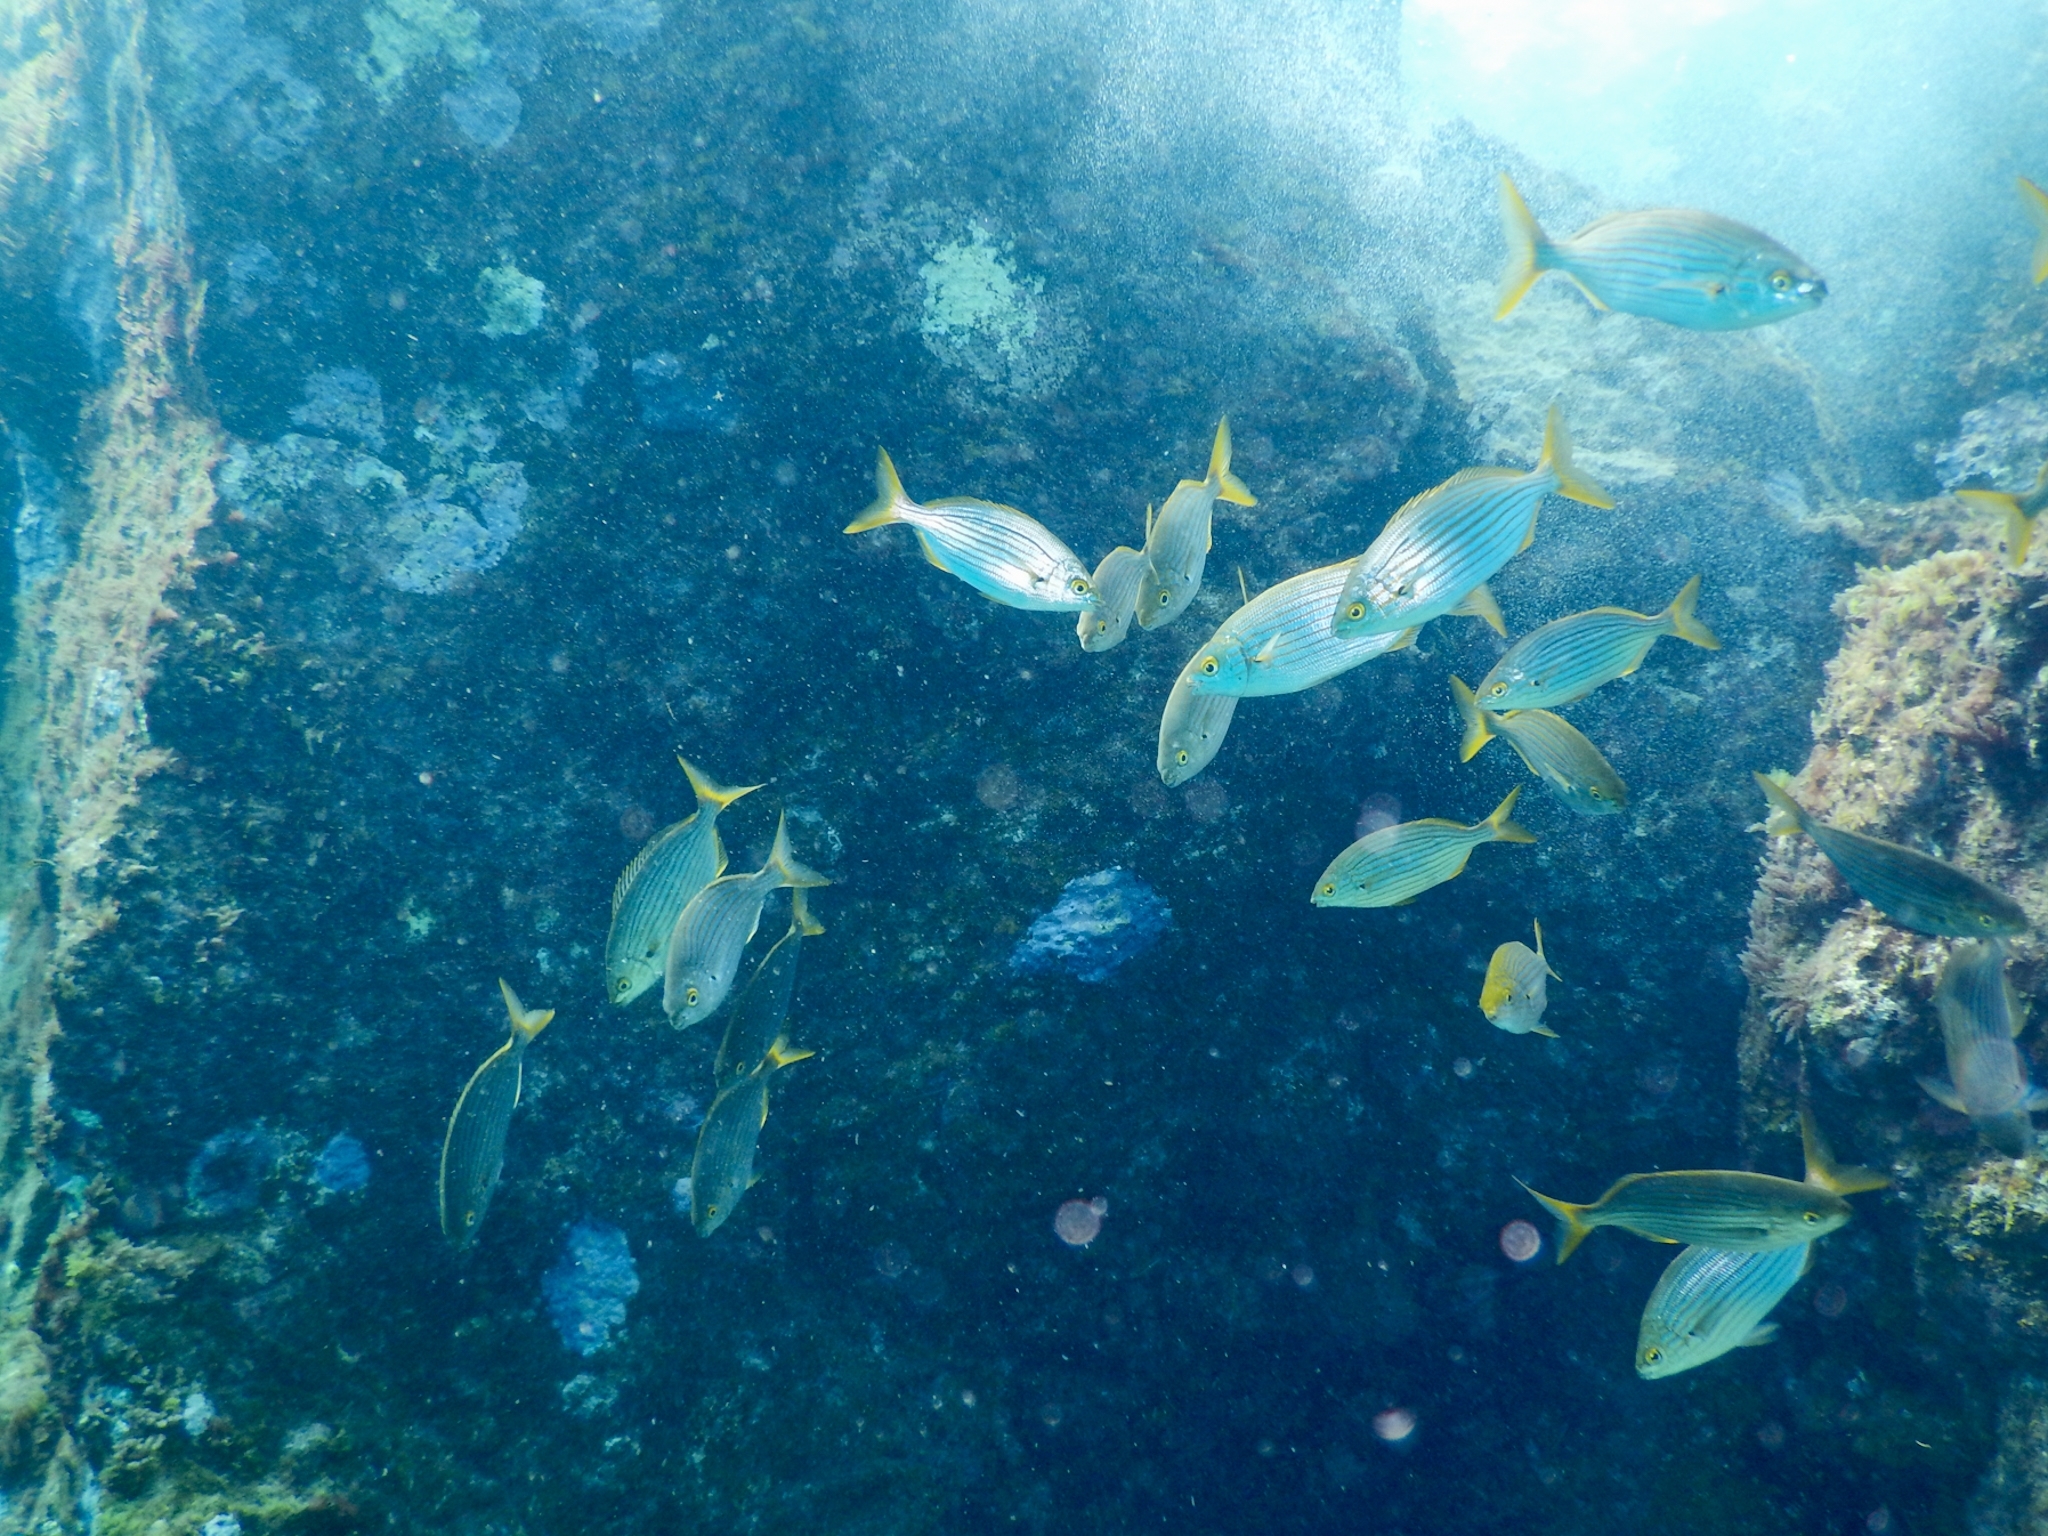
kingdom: Animalia
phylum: Chordata
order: Perciformes
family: Sparidae
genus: Sarpa
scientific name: Sarpa salpa
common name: Salema
